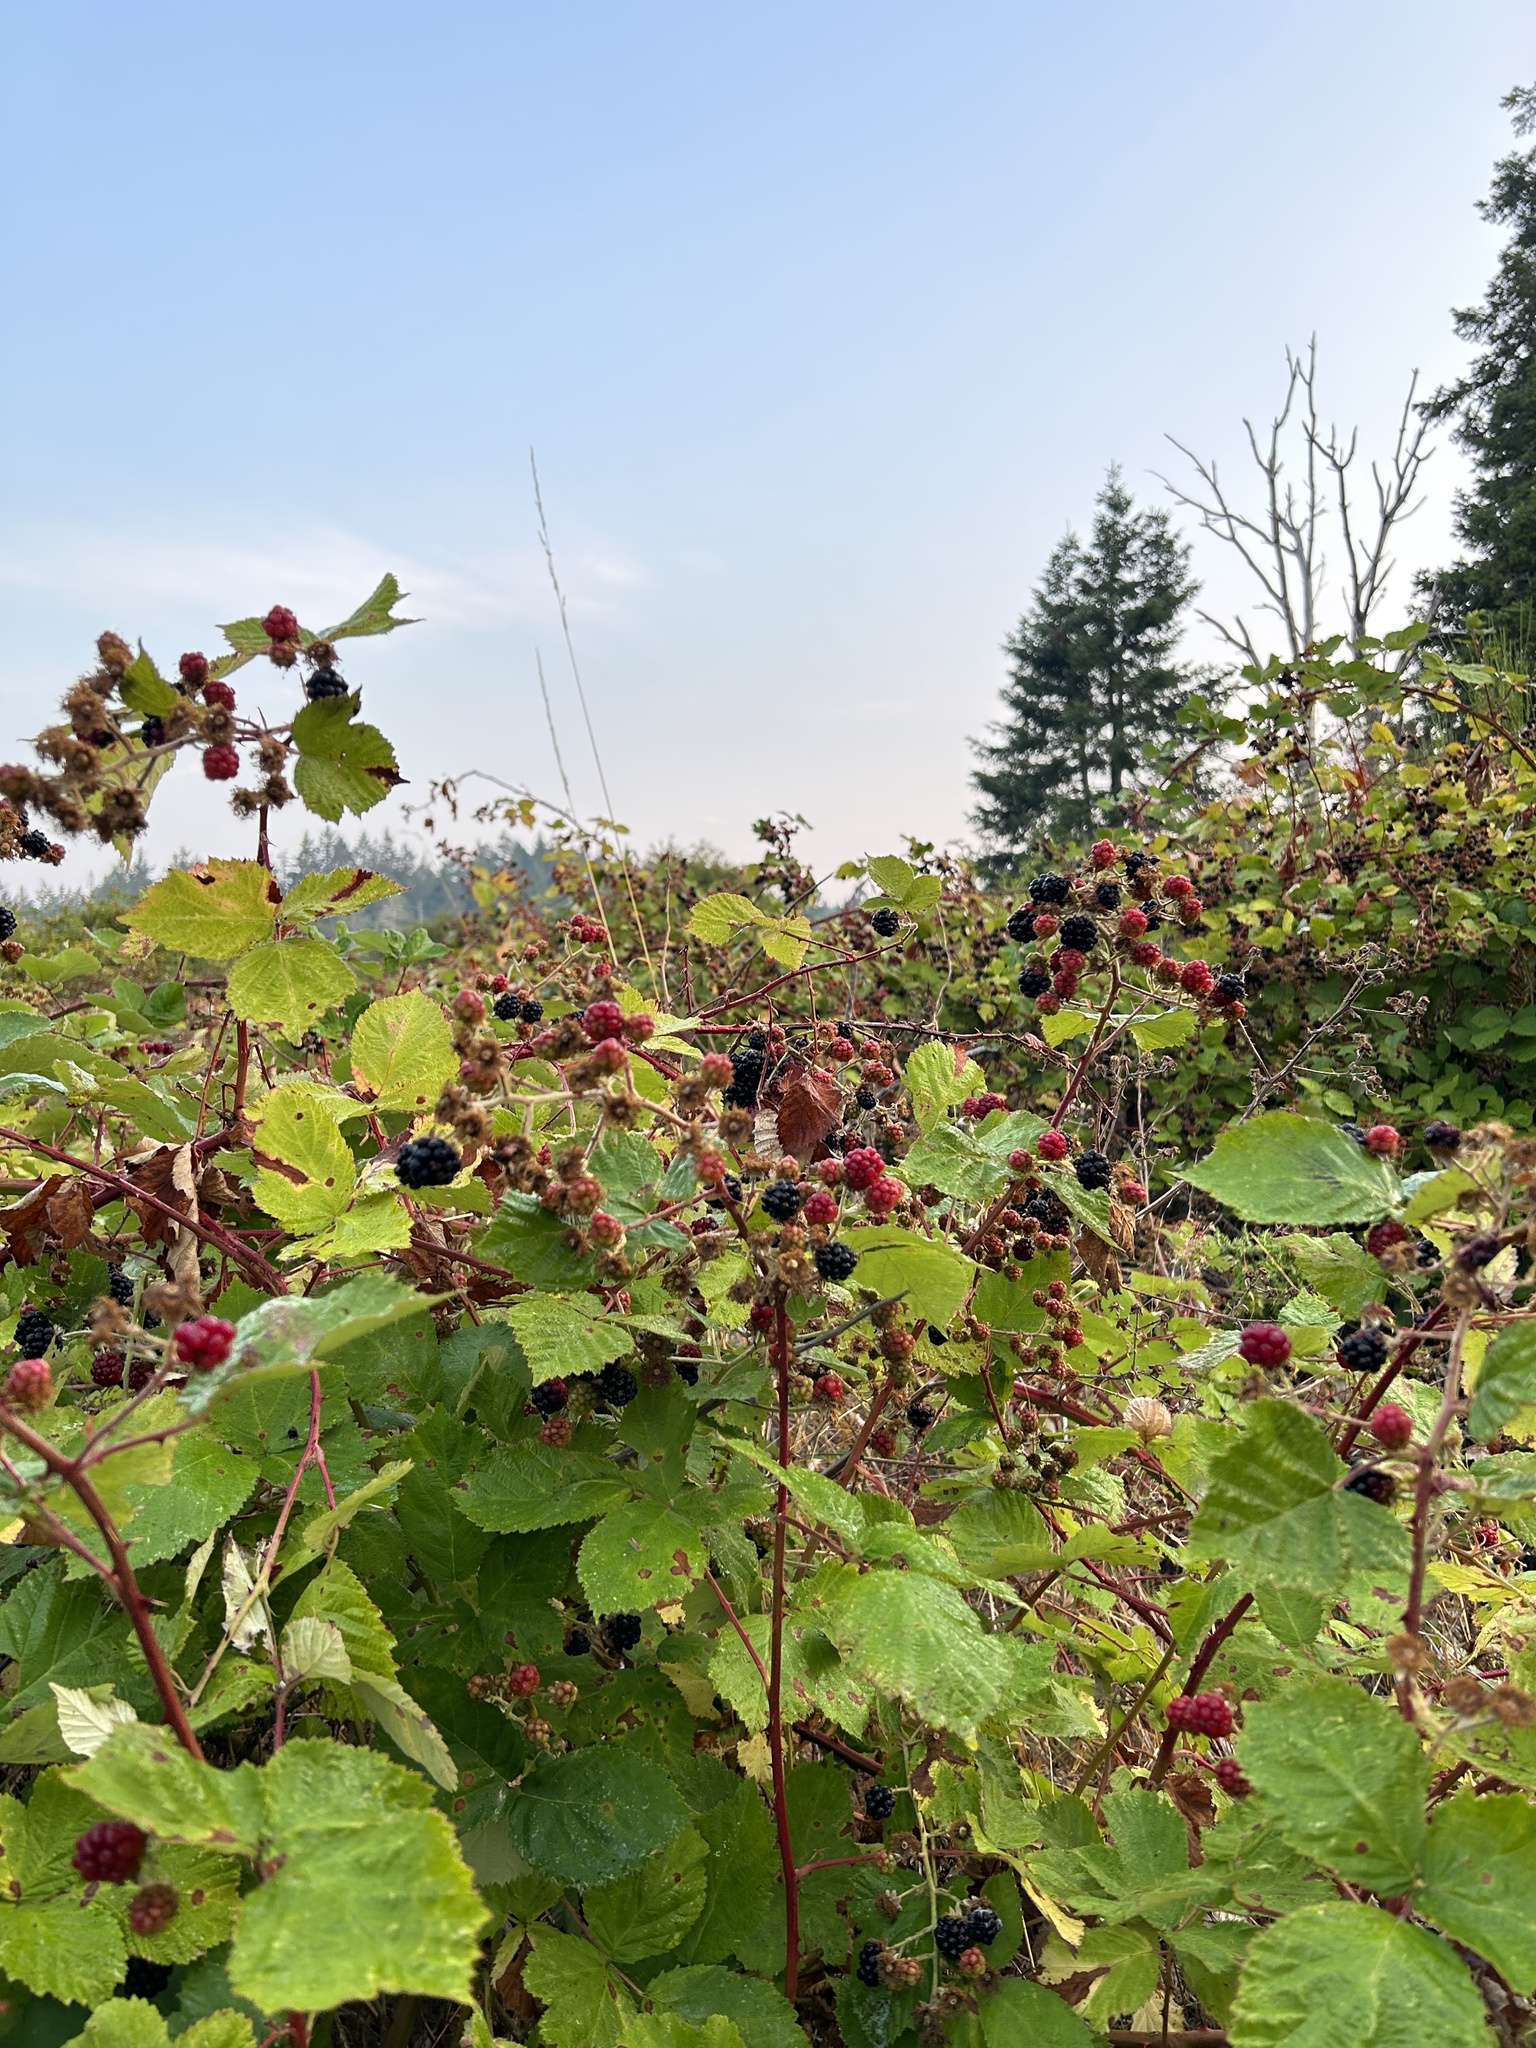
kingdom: Plantae
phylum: Tracheophyta
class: Magnoliopsida
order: Rosales
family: Rosaceae
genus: Rubus
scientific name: Rubus bifrons
